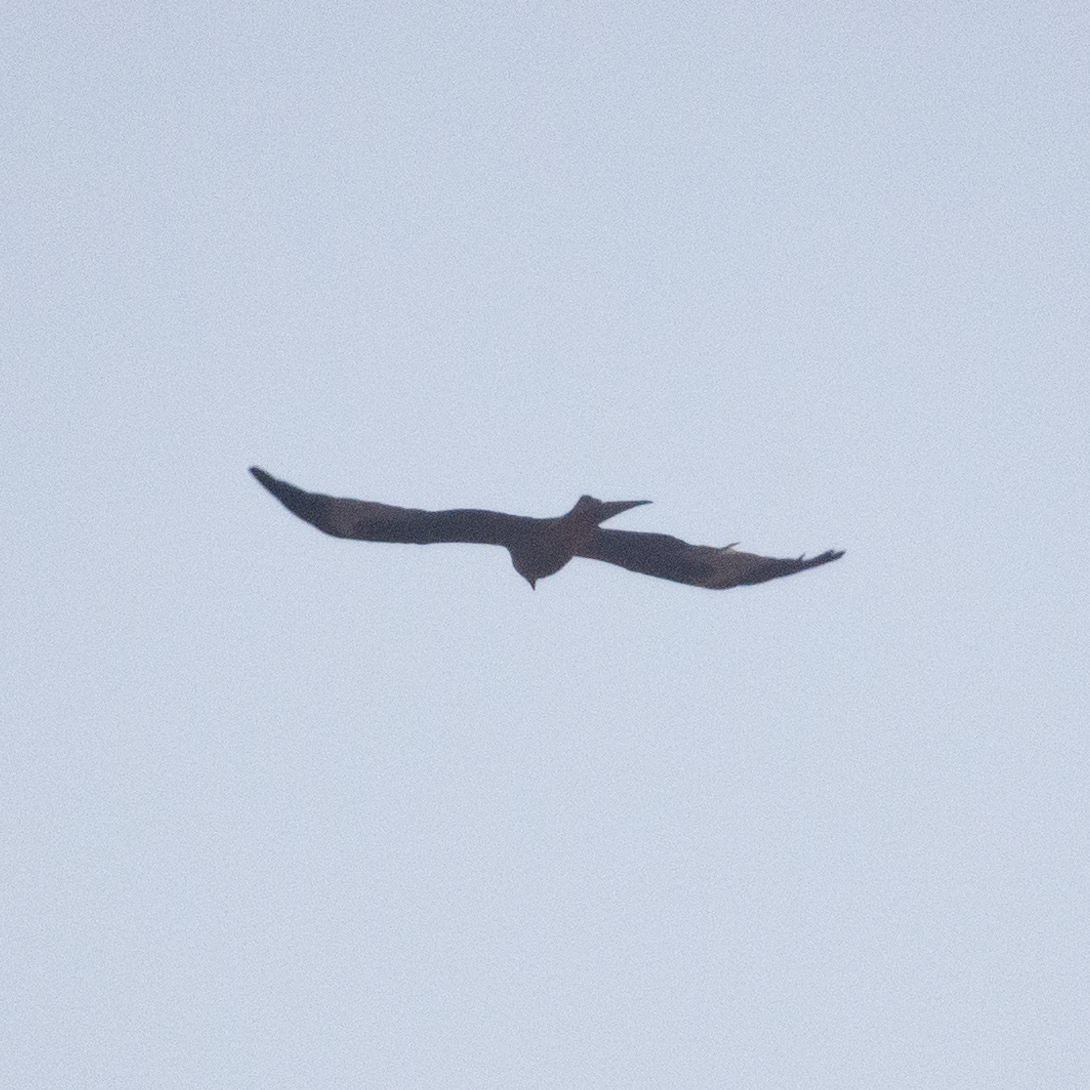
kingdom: Animalia
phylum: Chordata
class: Aves
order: Accipitriformes
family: Accipitridae
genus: Milvus
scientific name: Milvus milvus
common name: Red kite
